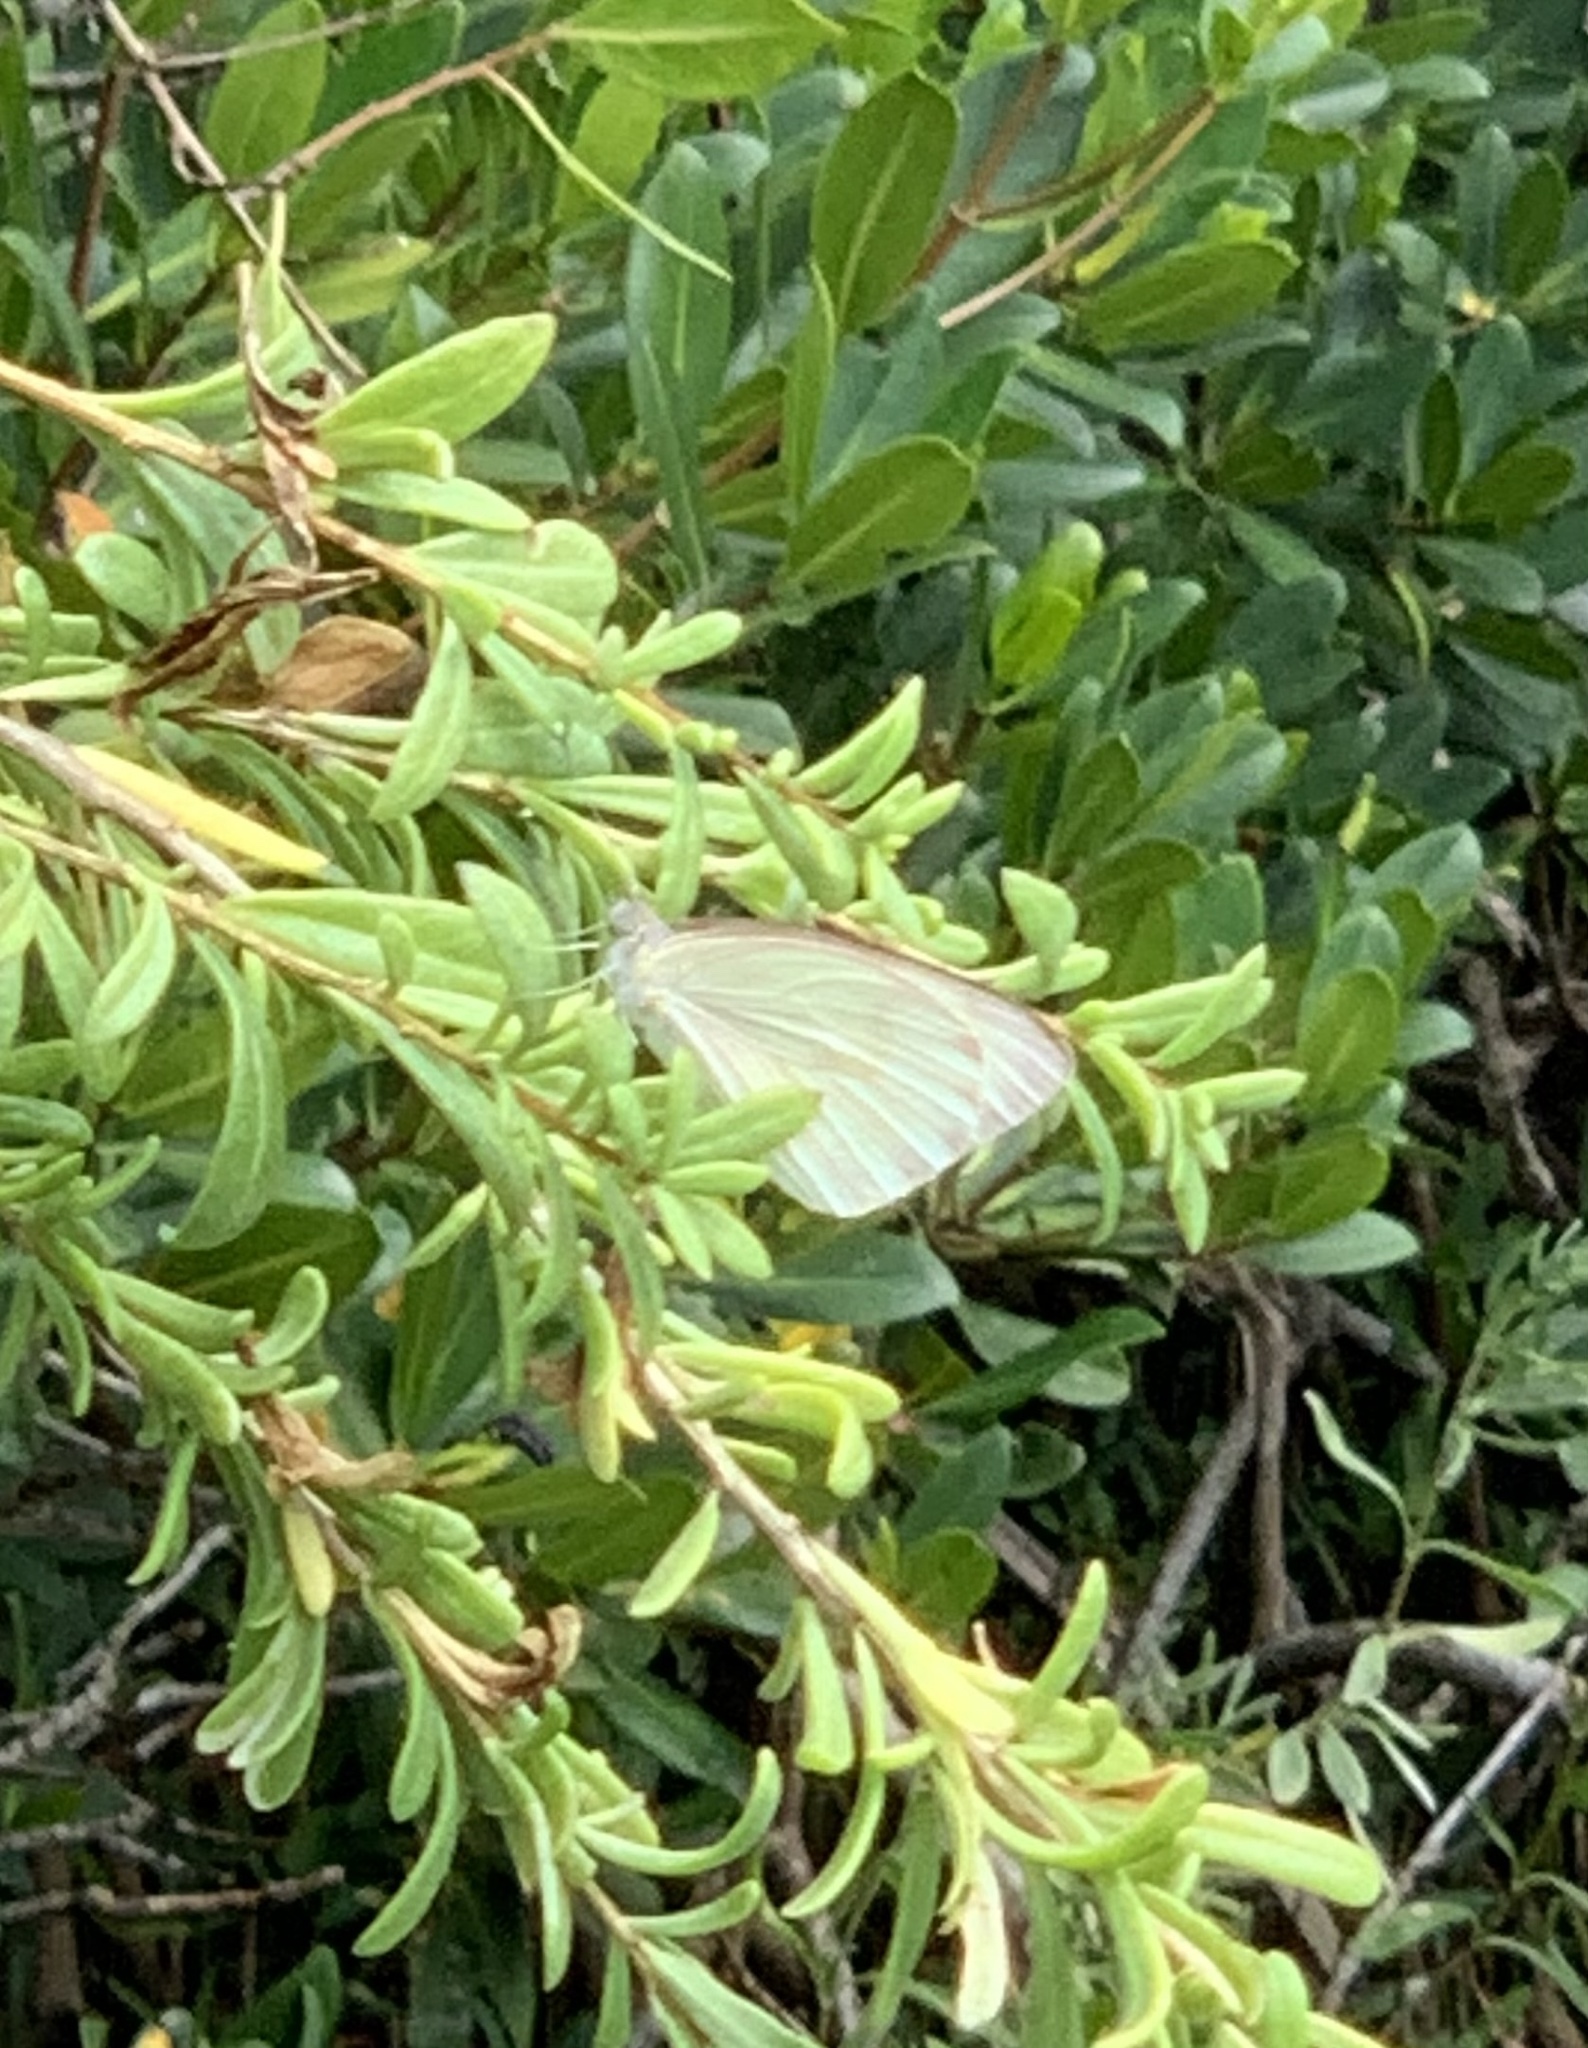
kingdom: Animalia
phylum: Arthropoda
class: Insecta
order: Lepidoptera
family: Pieridae
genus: Ascia
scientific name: Ascia monuste
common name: Great southern white
